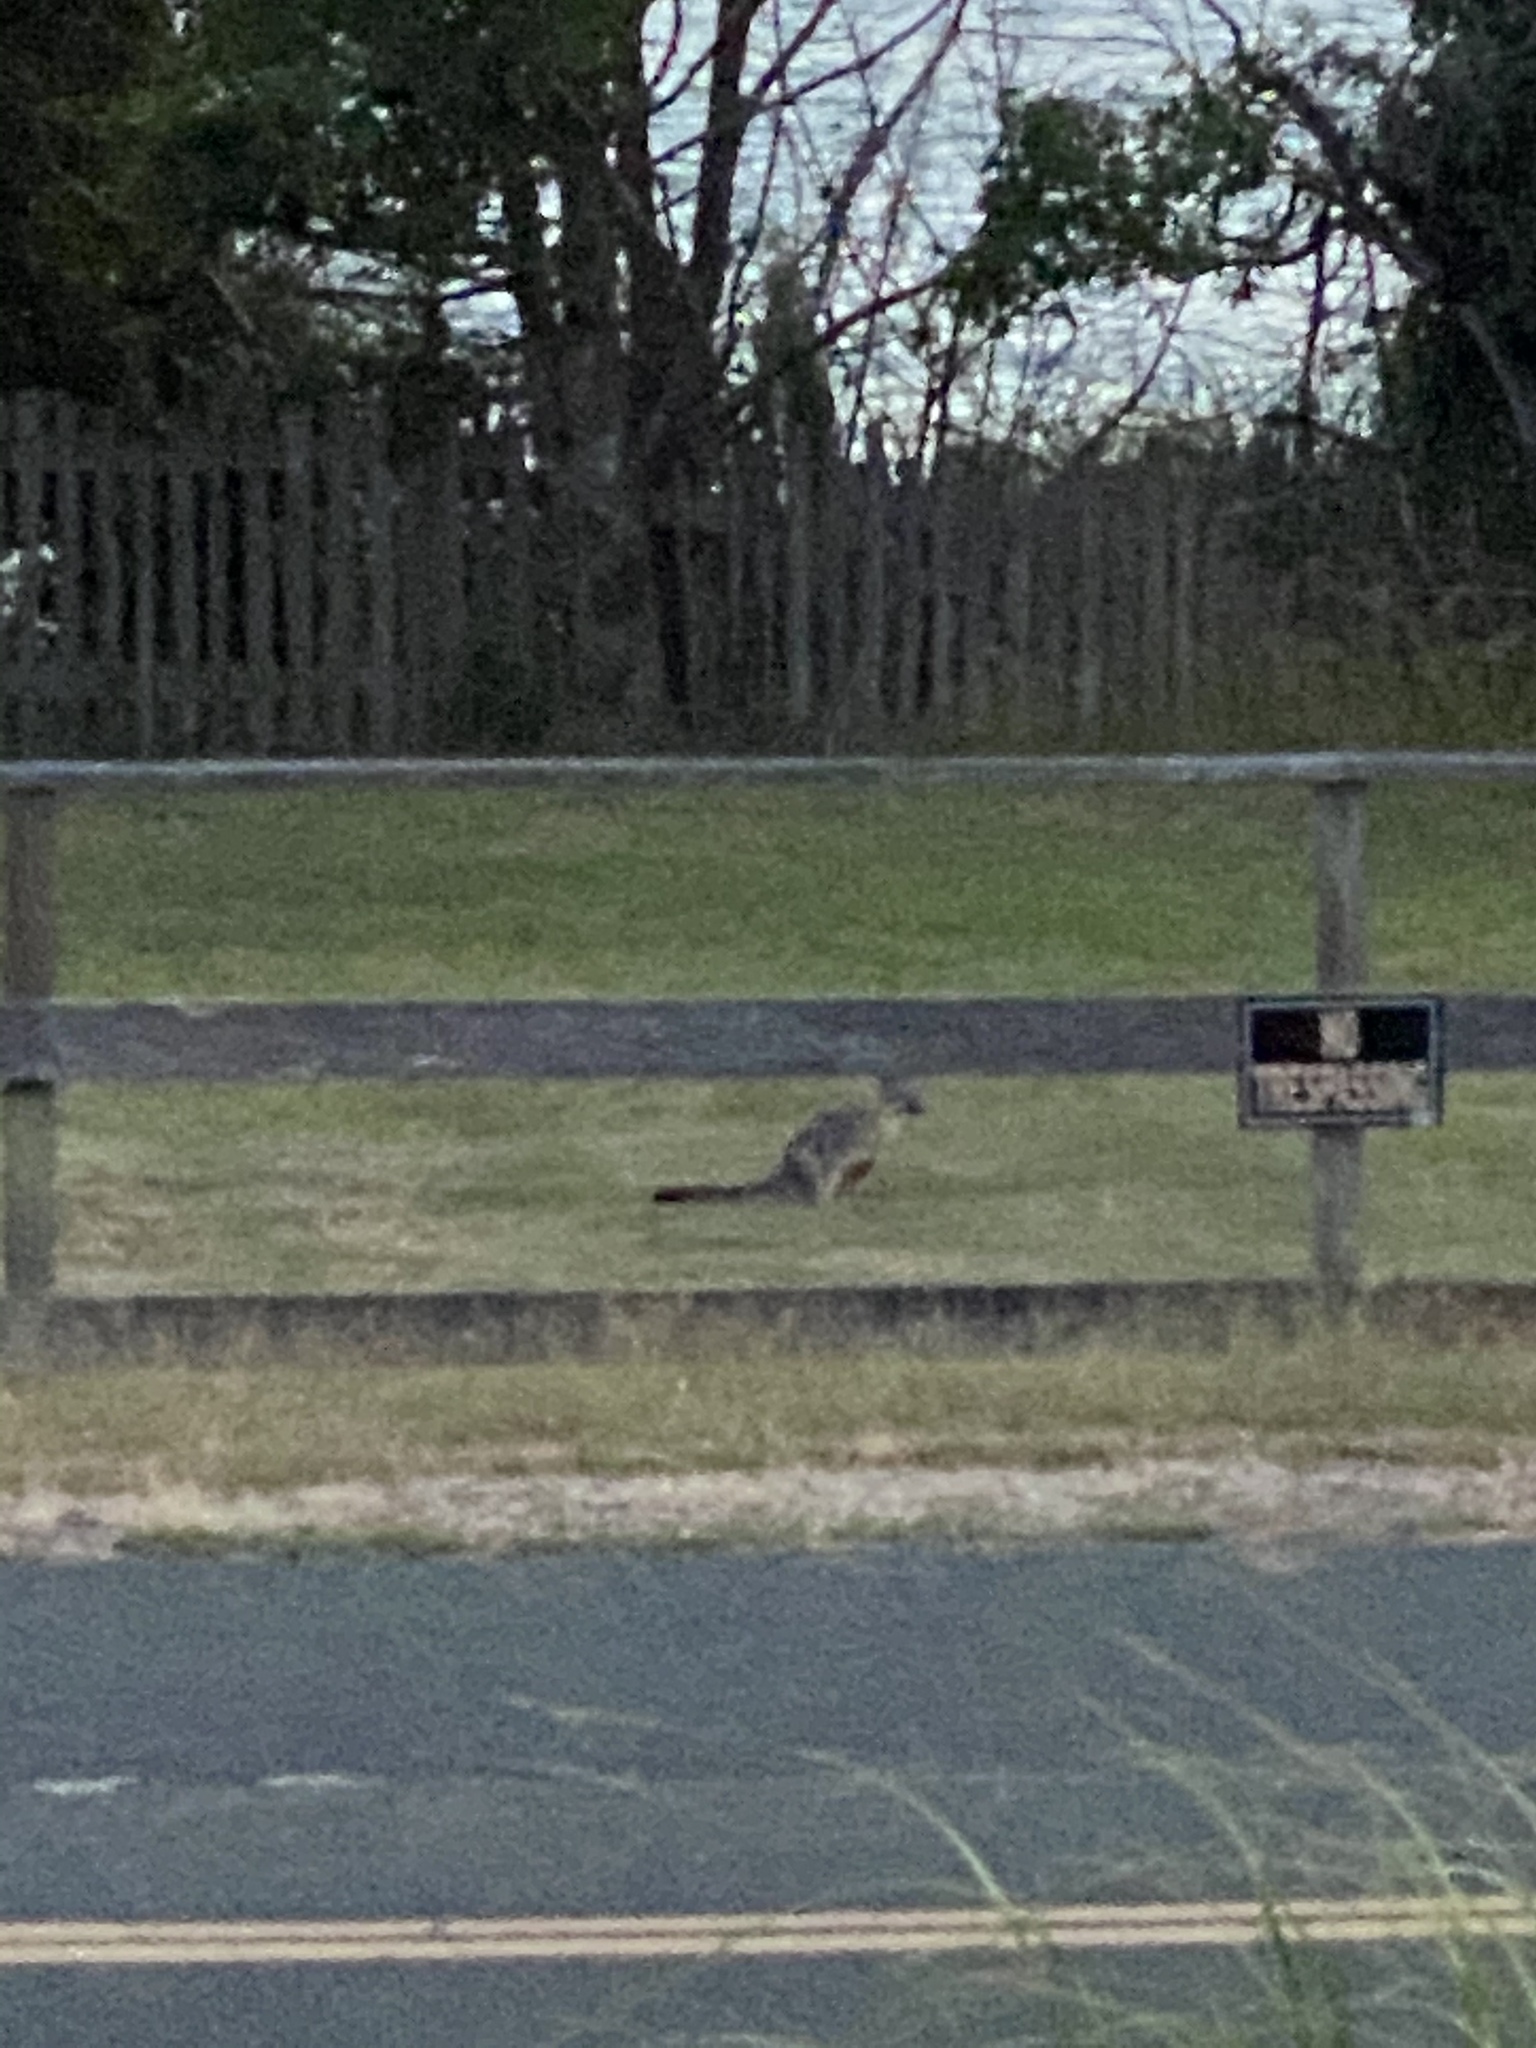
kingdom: Animalia
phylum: Chordata
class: Mammalia
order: Carnivora
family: Canidae
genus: Urocyon
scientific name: Urocyon cinereoargenteus
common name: Gray fox
